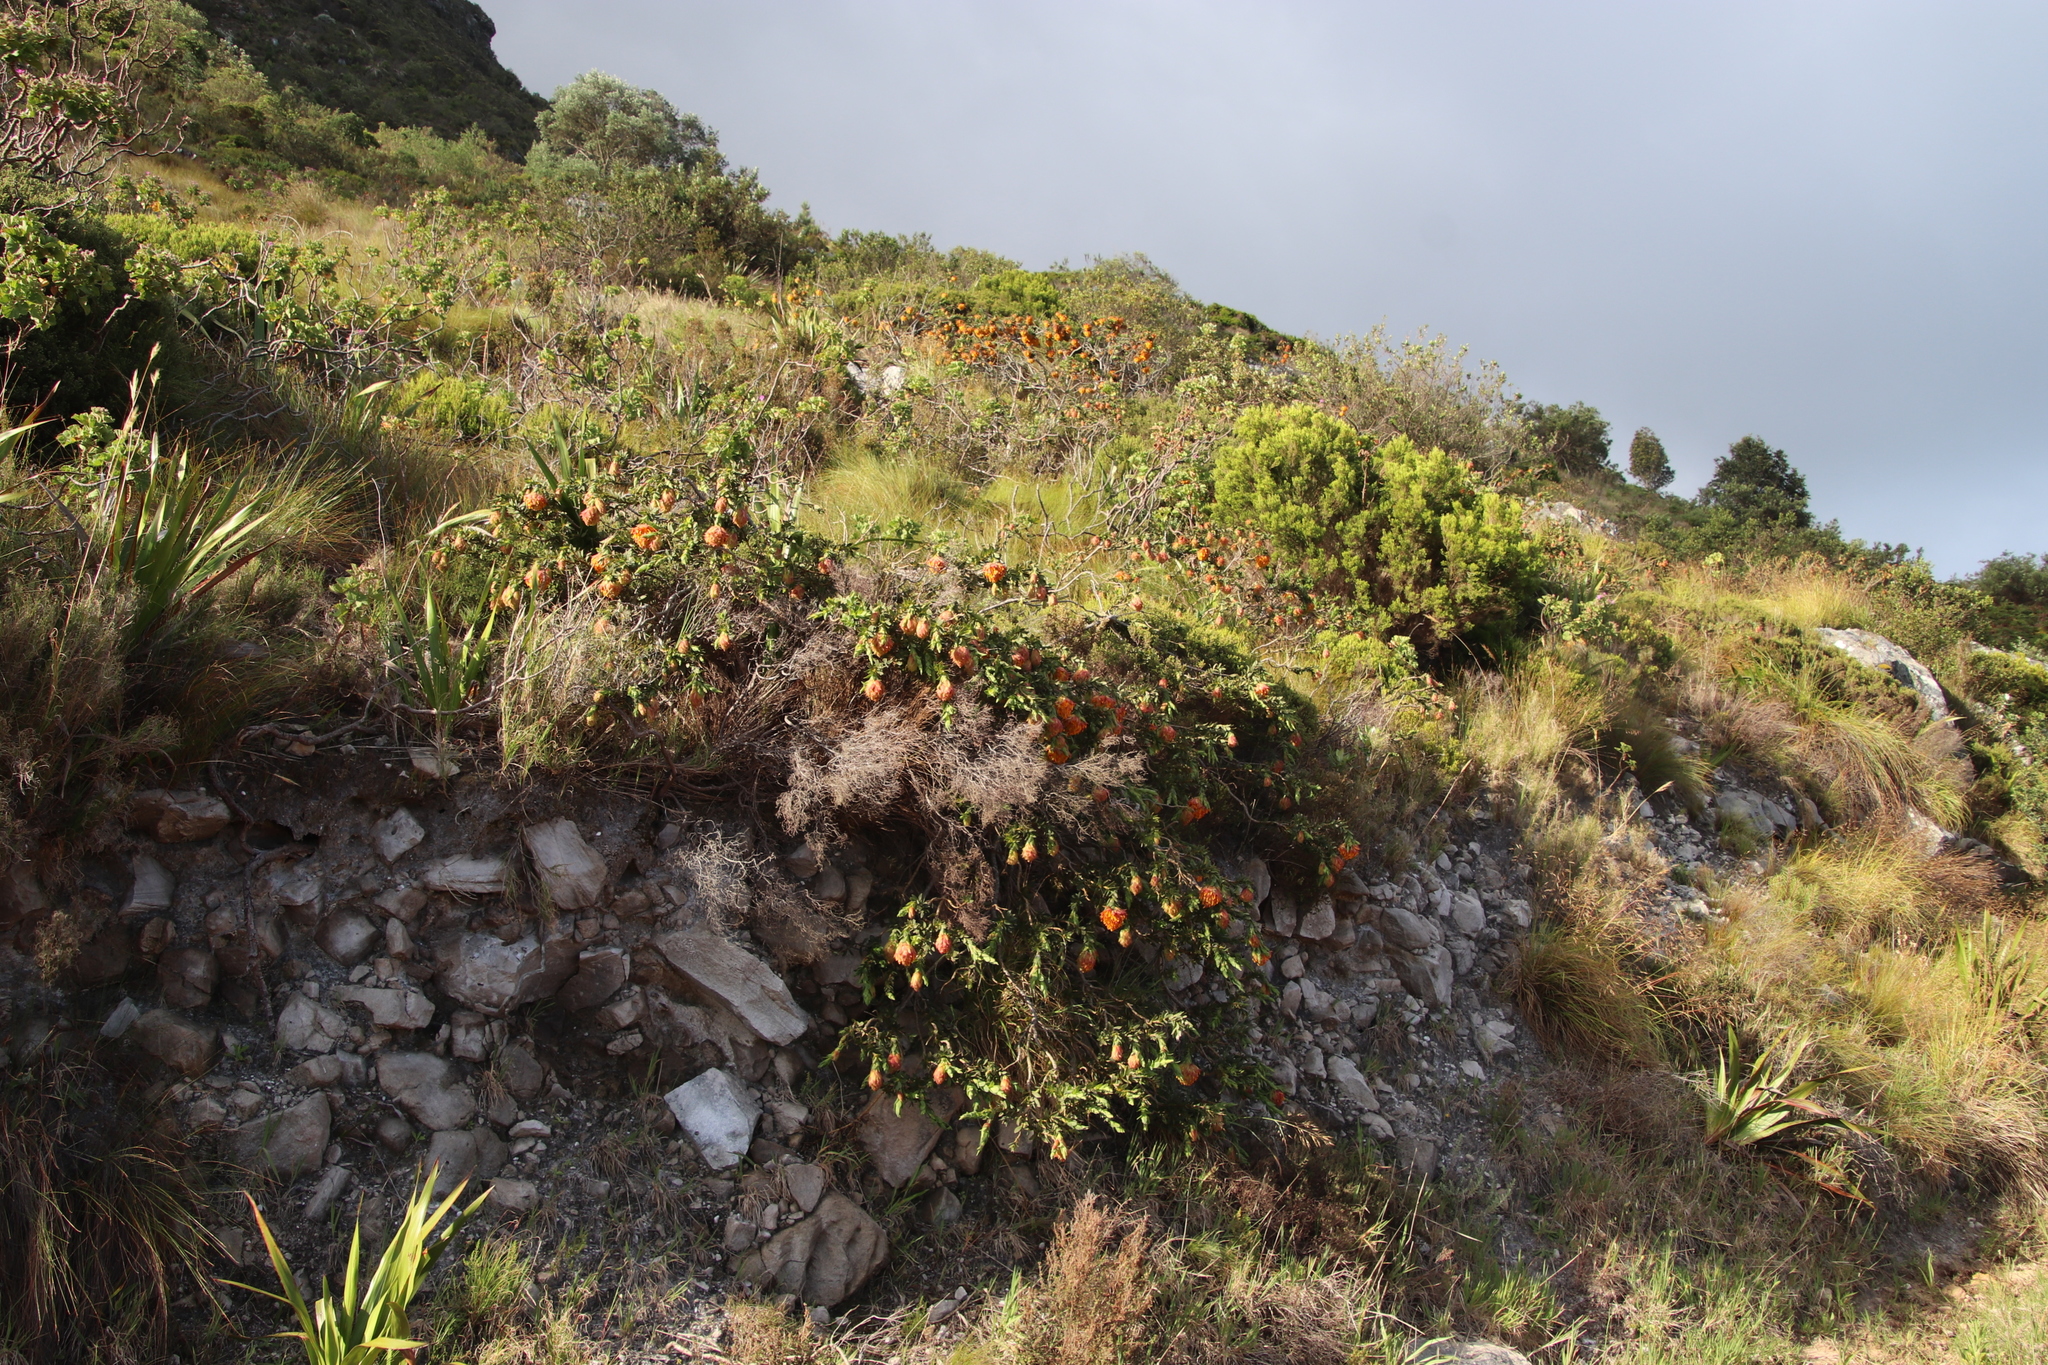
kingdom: Plantae
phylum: Tracheophyta
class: Magnoliopsida
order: Fabales
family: Fabaceae
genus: Liparia
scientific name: Liparia splendens
